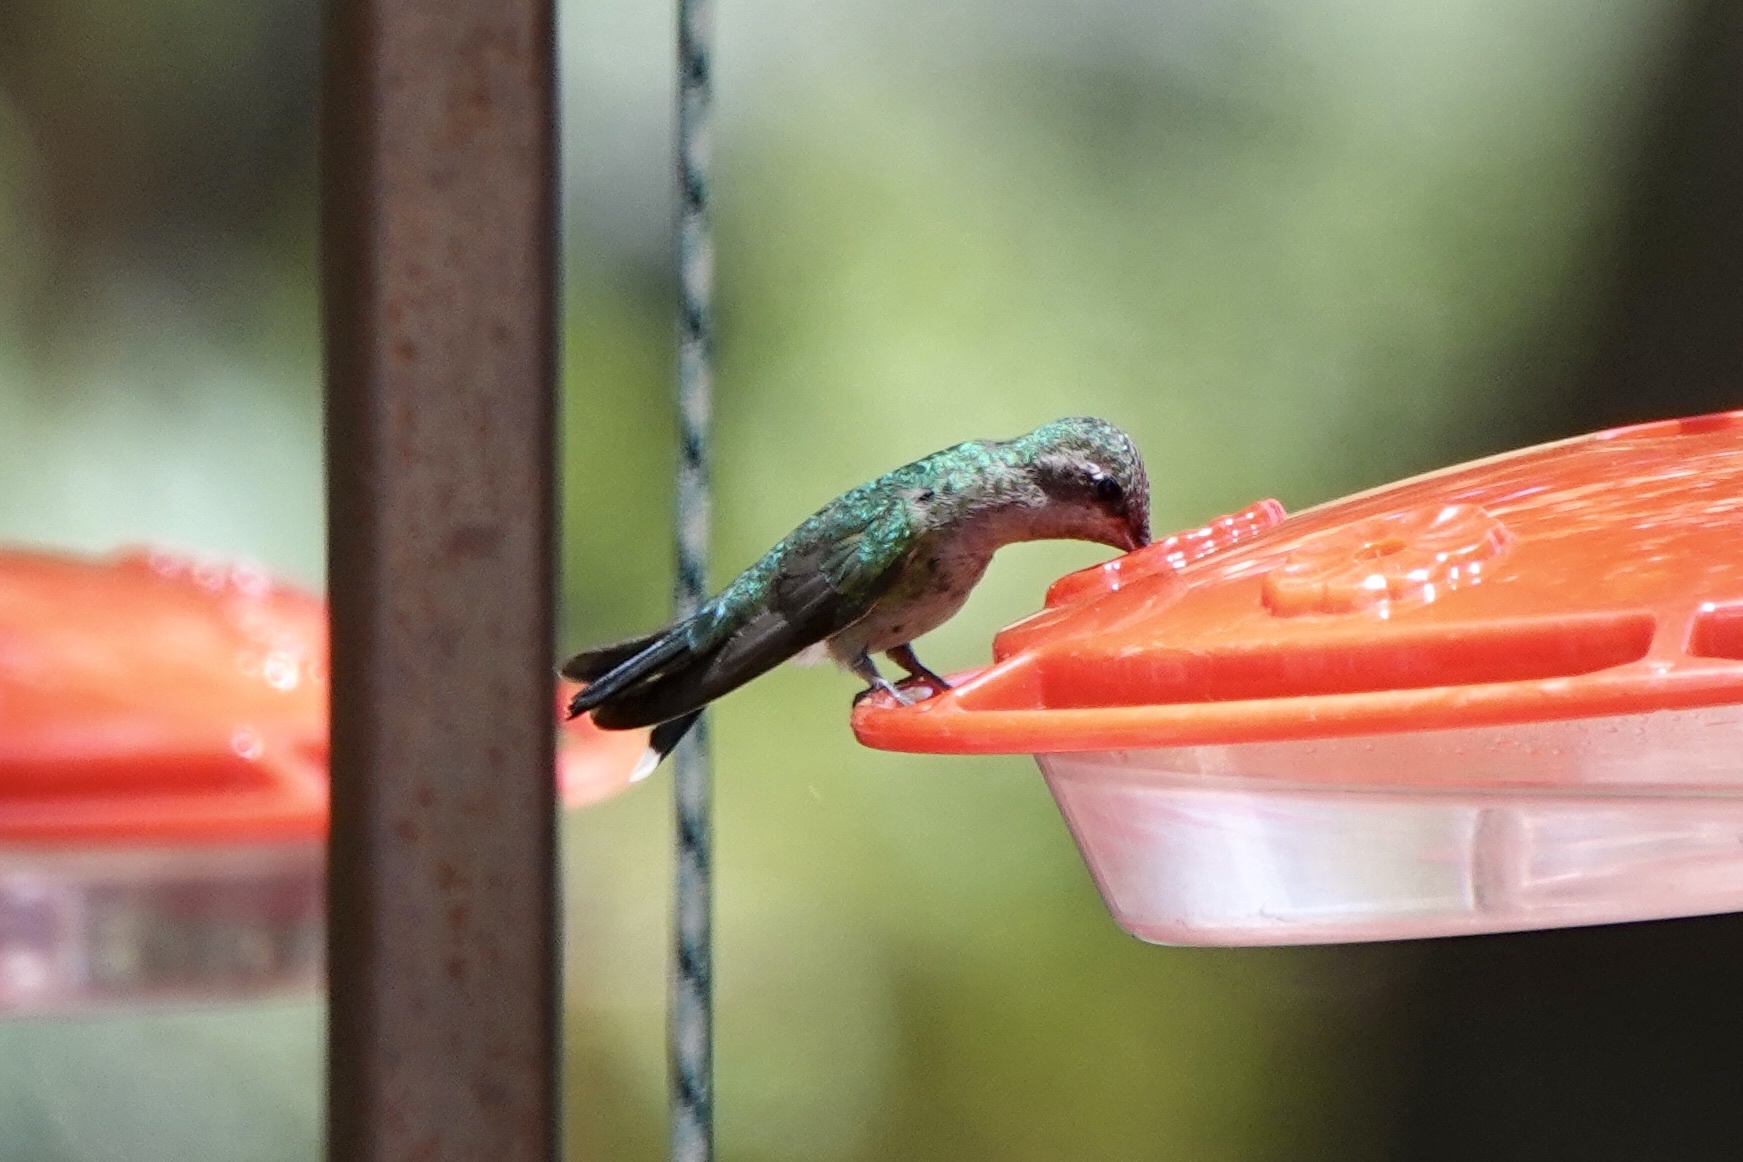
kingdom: Animalia
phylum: Chordata
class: Aves
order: Apodiformes
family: Trochilidae
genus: Cynanthus
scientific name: Cynanthus latirostris
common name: Broad-billed hummingbird
